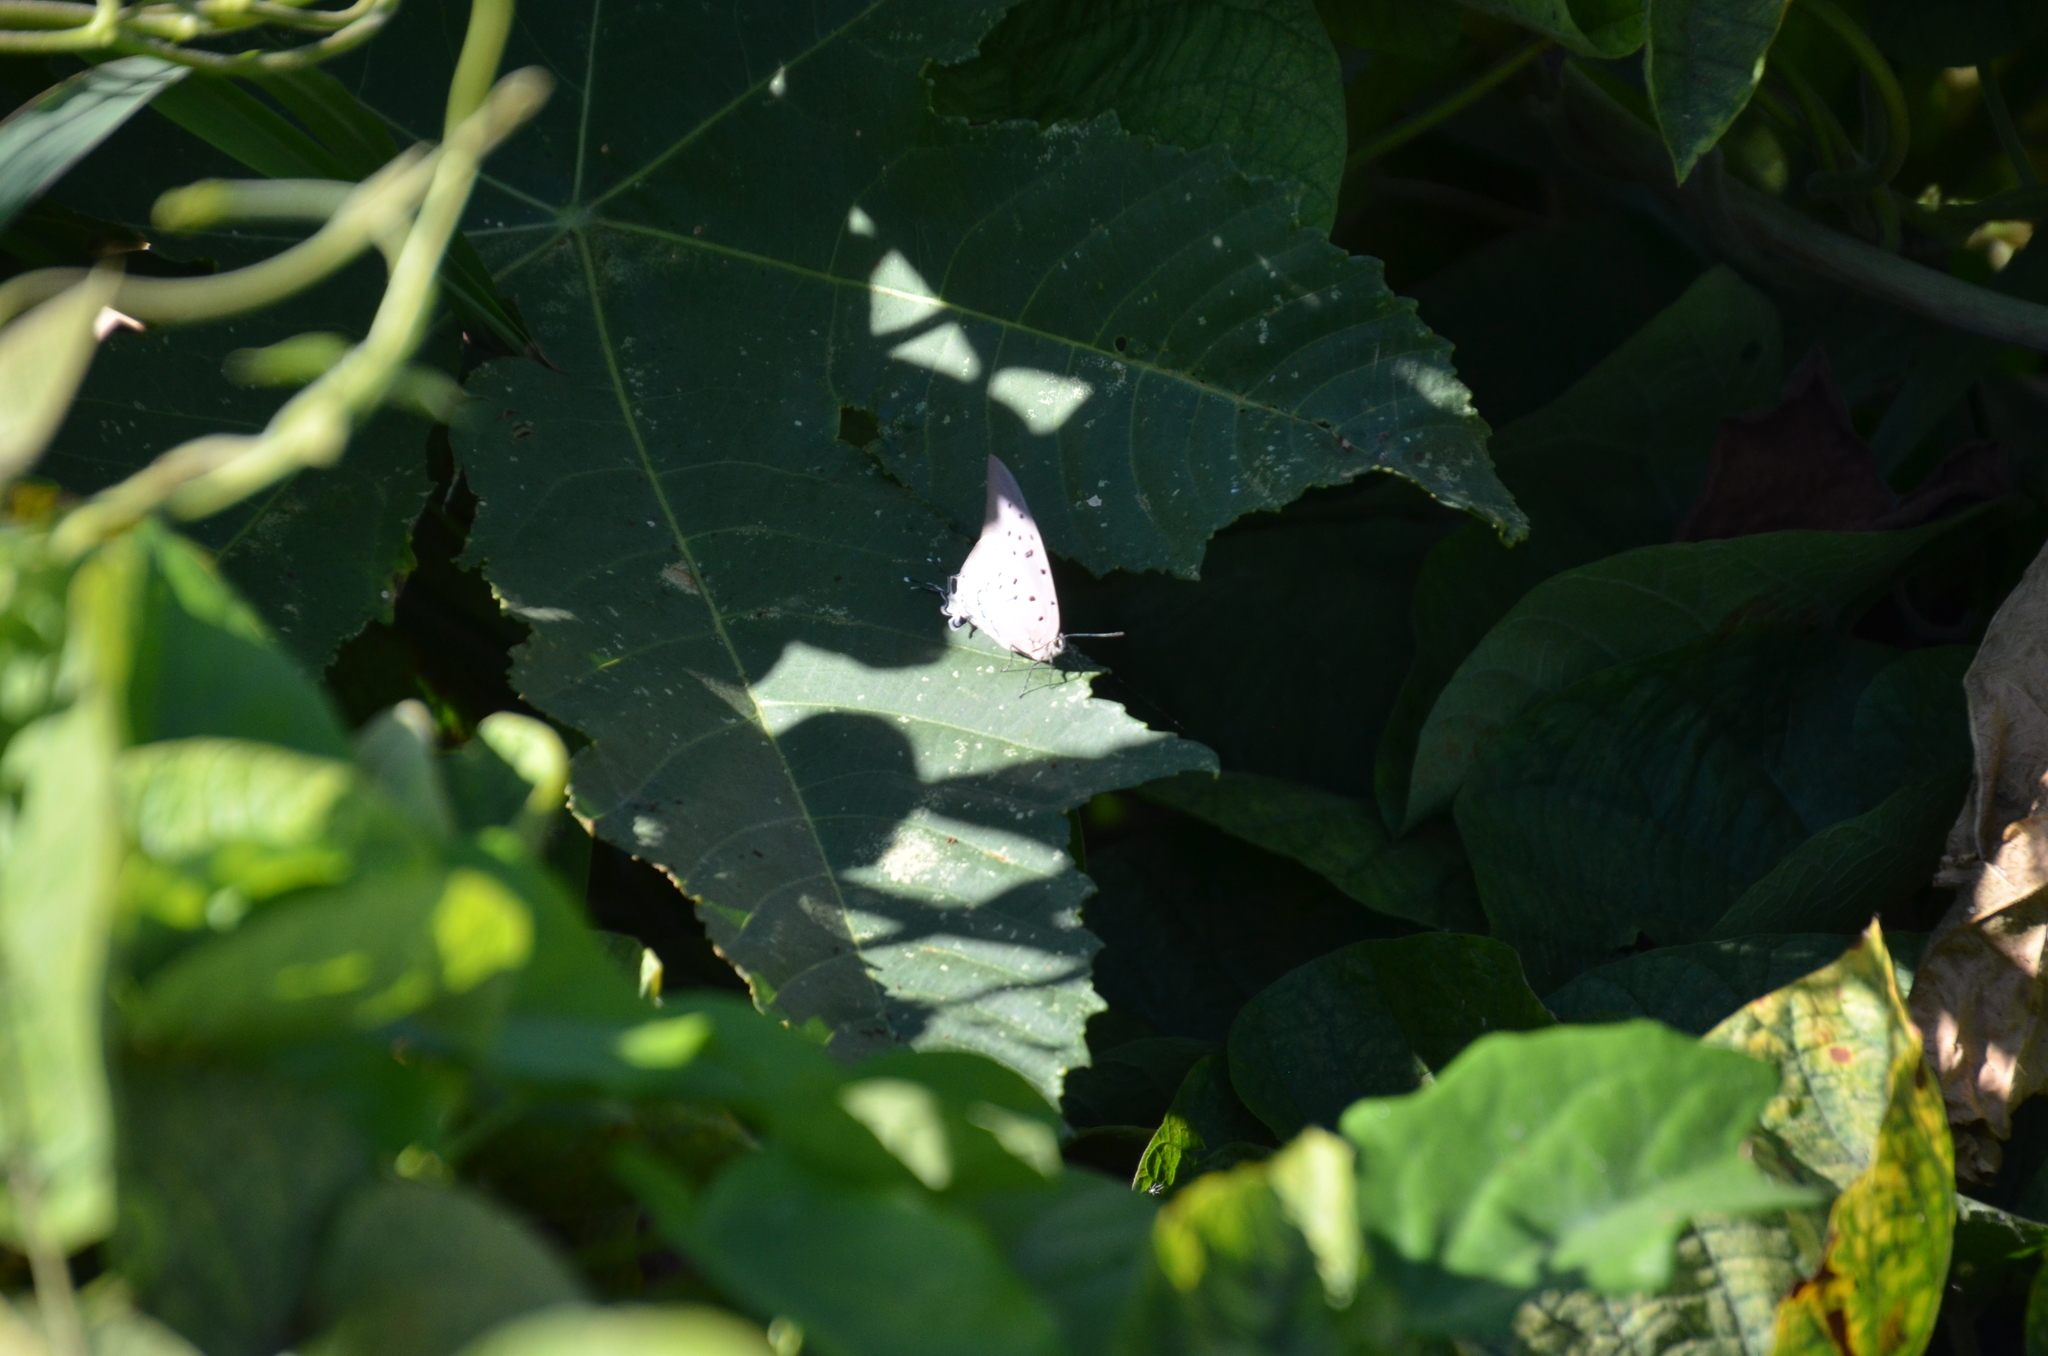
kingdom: Animalia
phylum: Arthropoda
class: Insecta
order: Lepidoptera
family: Lycaenidae
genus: Pseudolycaena
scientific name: Pseudolycaena damo
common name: Sky-blue hairstreak
